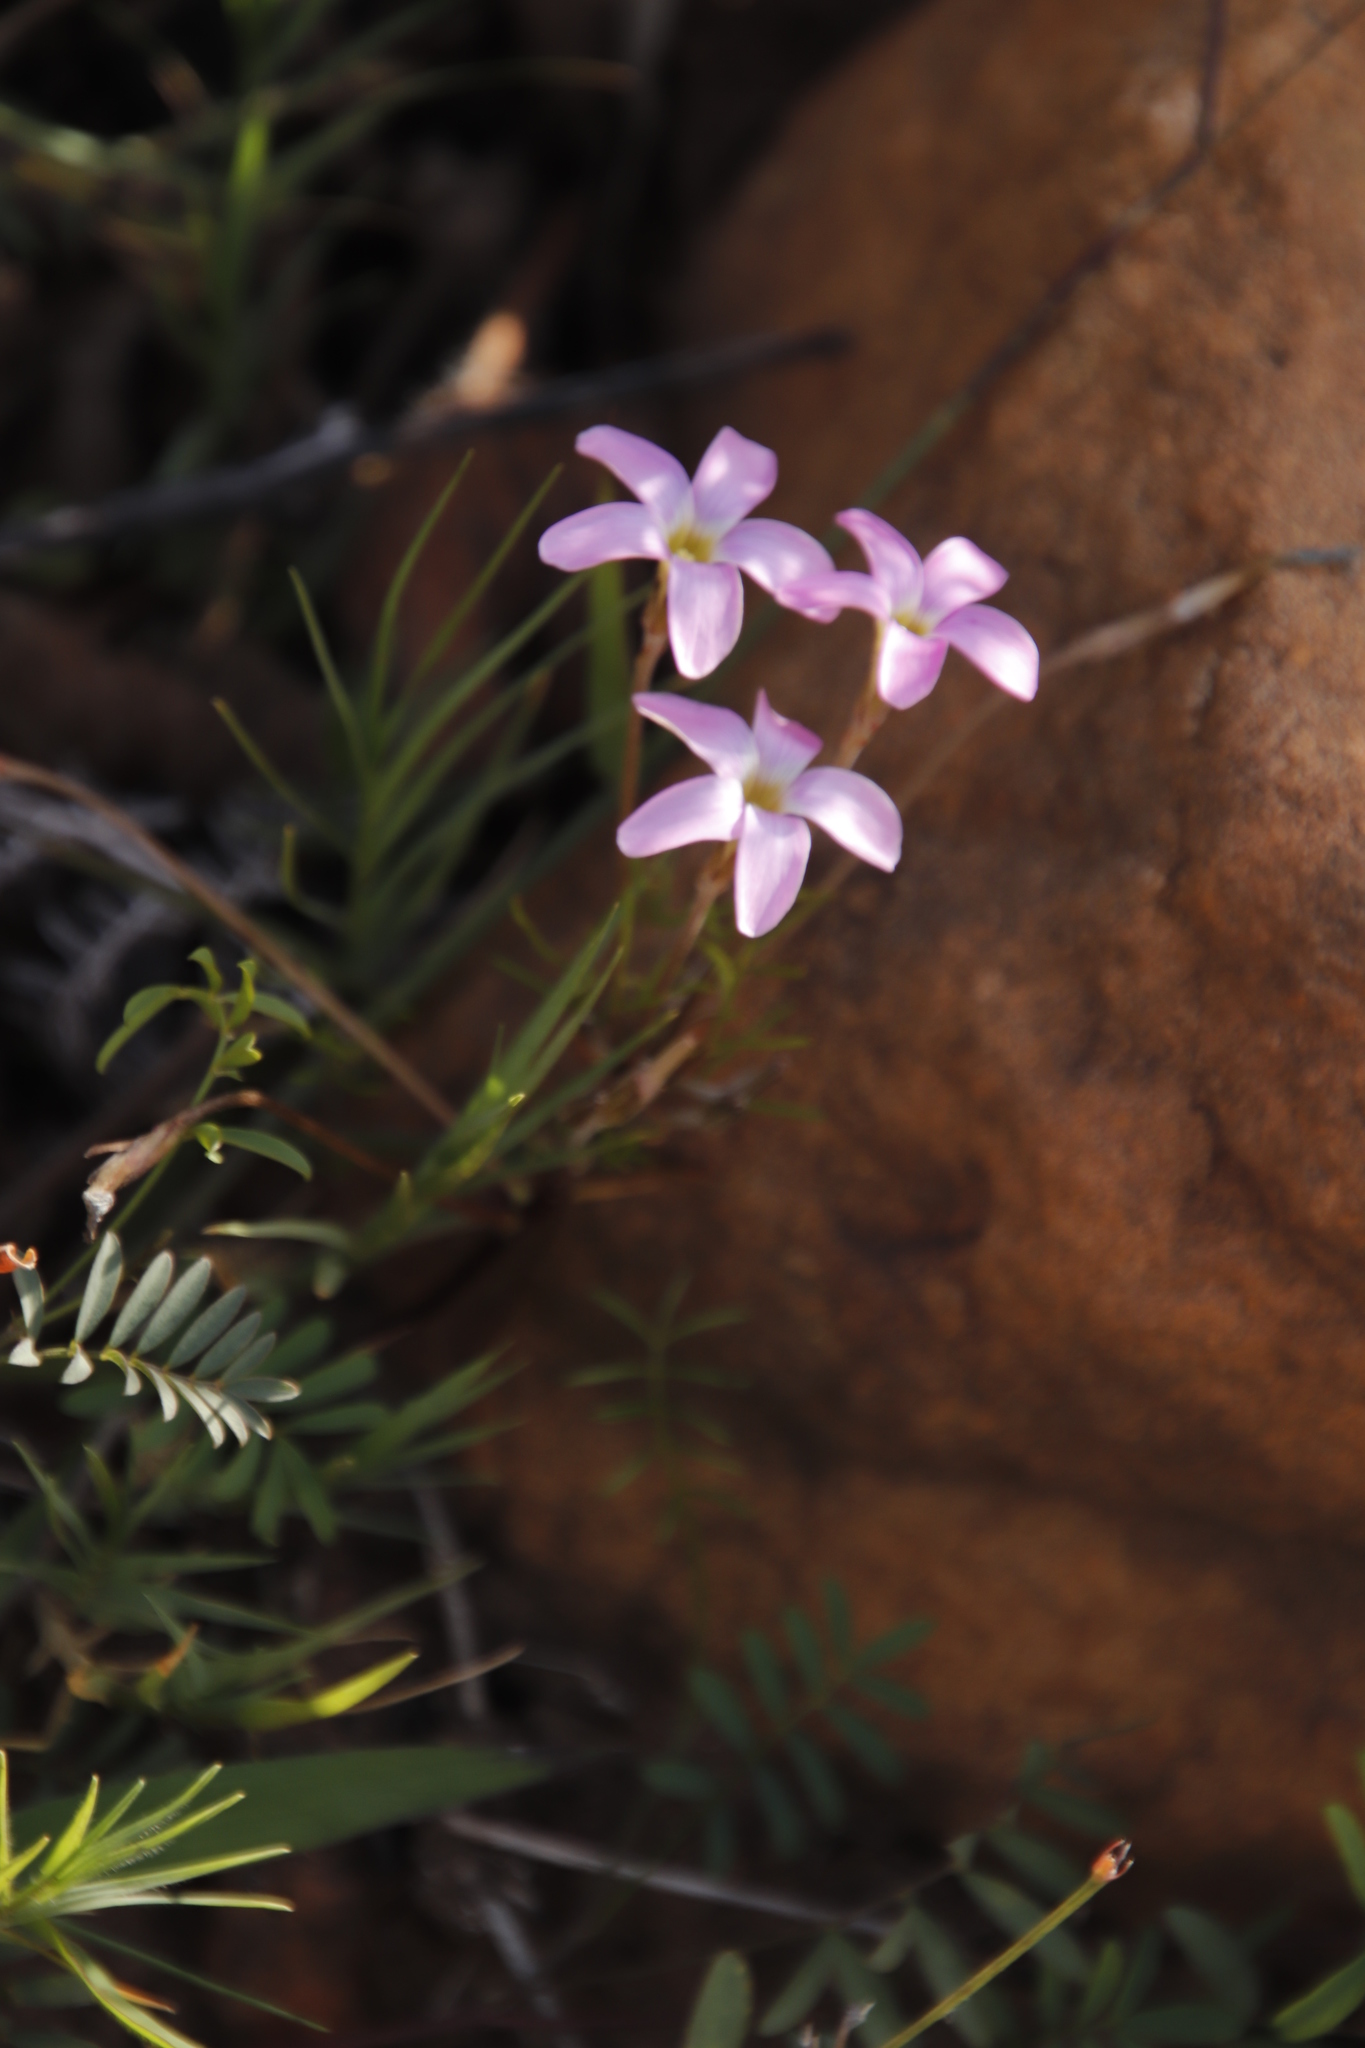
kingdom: Plantae
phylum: Tracheophyta
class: Magnoliopsida
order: Oxalidales
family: Oxalidaceae
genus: Oxalis
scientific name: Oxalis polyphylla
